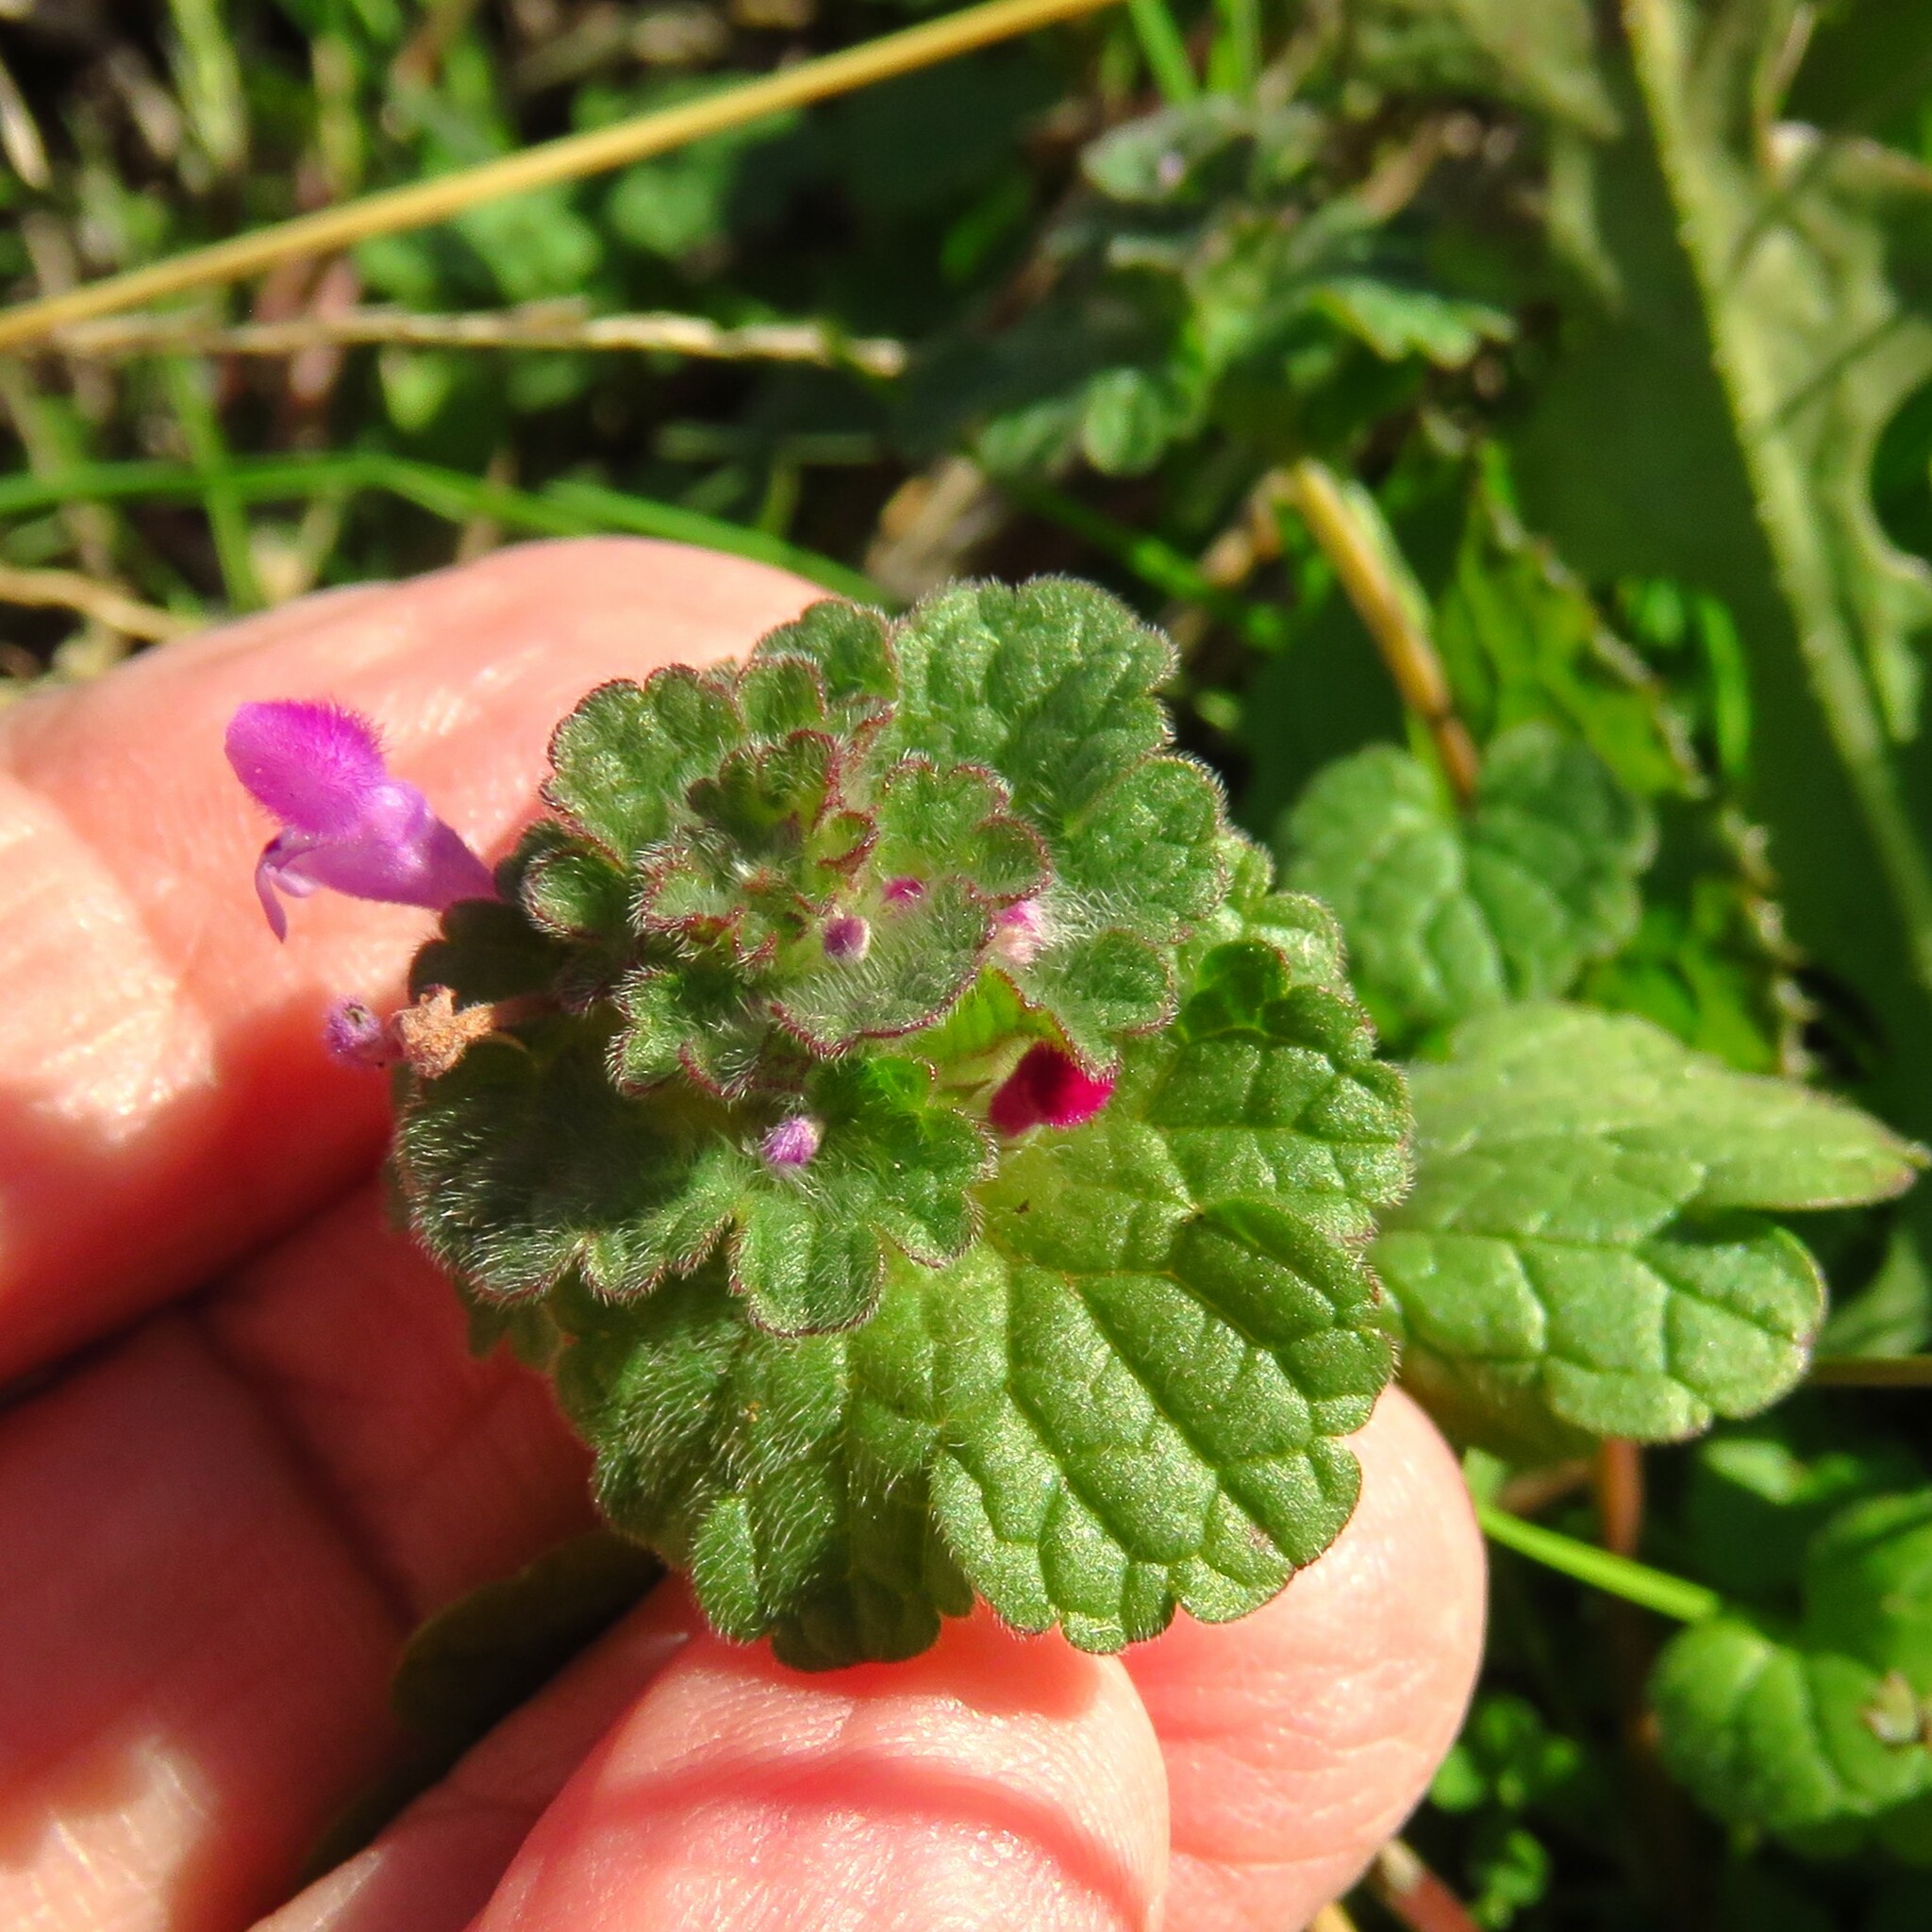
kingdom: Plantae
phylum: Tracheophyta
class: Magnoliopsida
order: Lamiales
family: Lamiaceae
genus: Lamium
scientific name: Lamium amplexicaule
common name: Henbit dead-nettle
